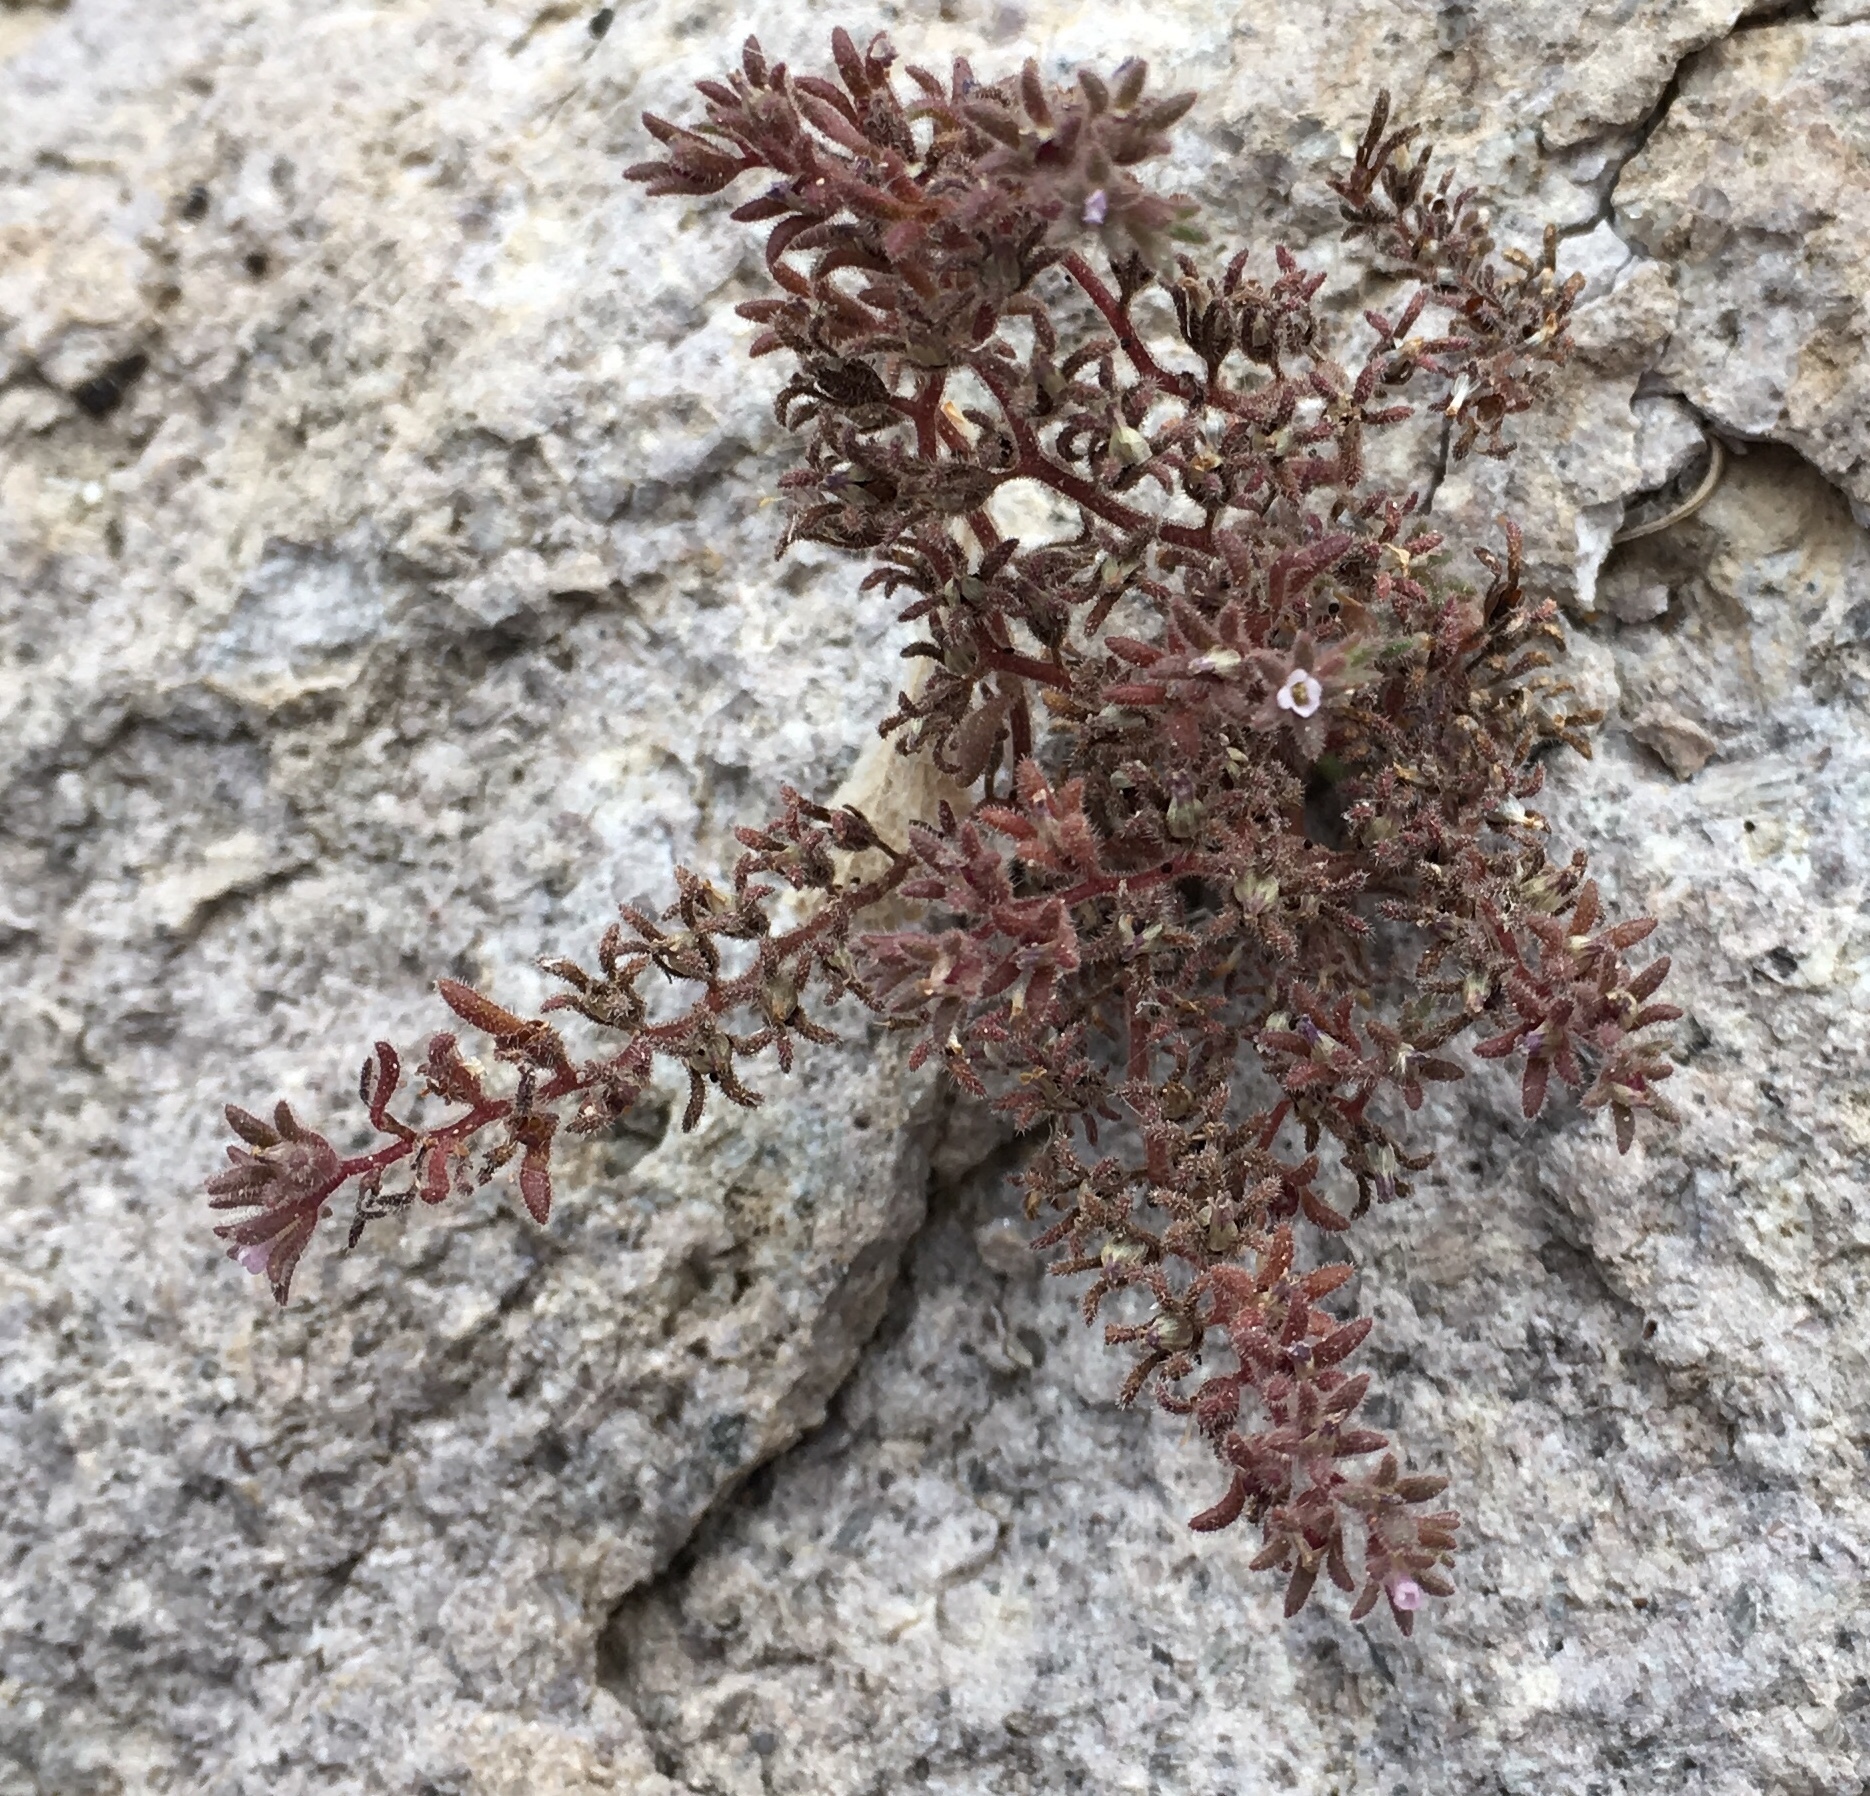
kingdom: Plantae
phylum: Tracheophyta
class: Magnoliopsida
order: Boraginales
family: Hydrophyllaceae
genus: Phacelia
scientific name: Phacelia saxicola
